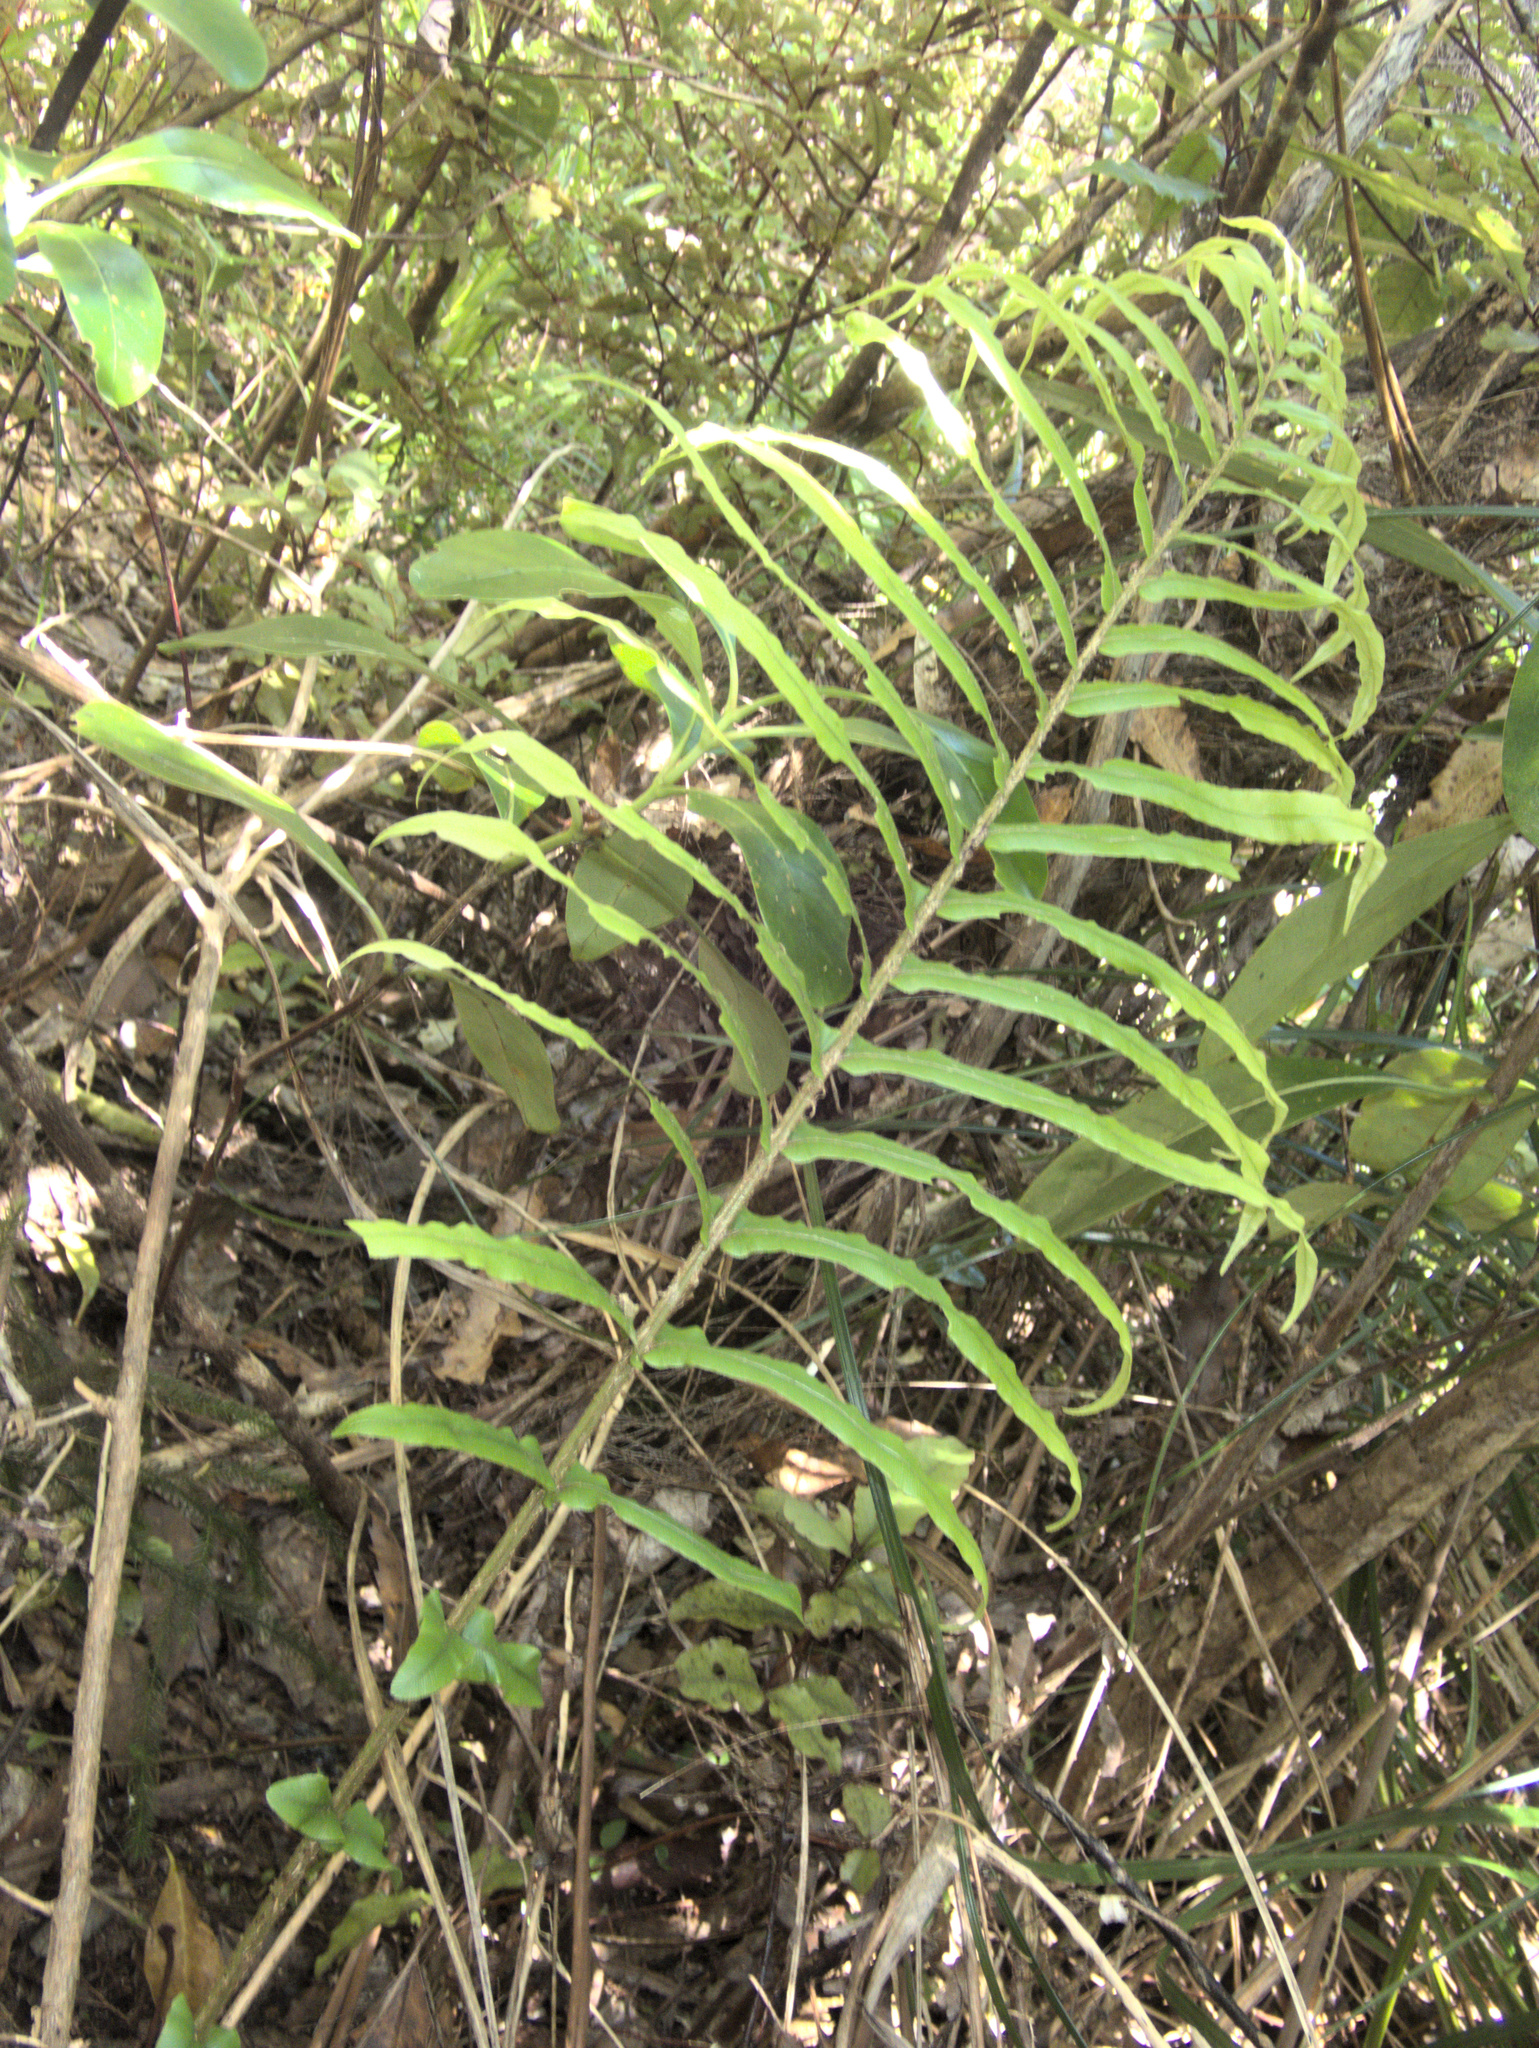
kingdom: Plantae
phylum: Tracheophyta
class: Polypodiopsida
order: Polypodiales
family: Blechnaceae
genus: Parablechnum
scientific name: Parablechnum novae-zelandiae
